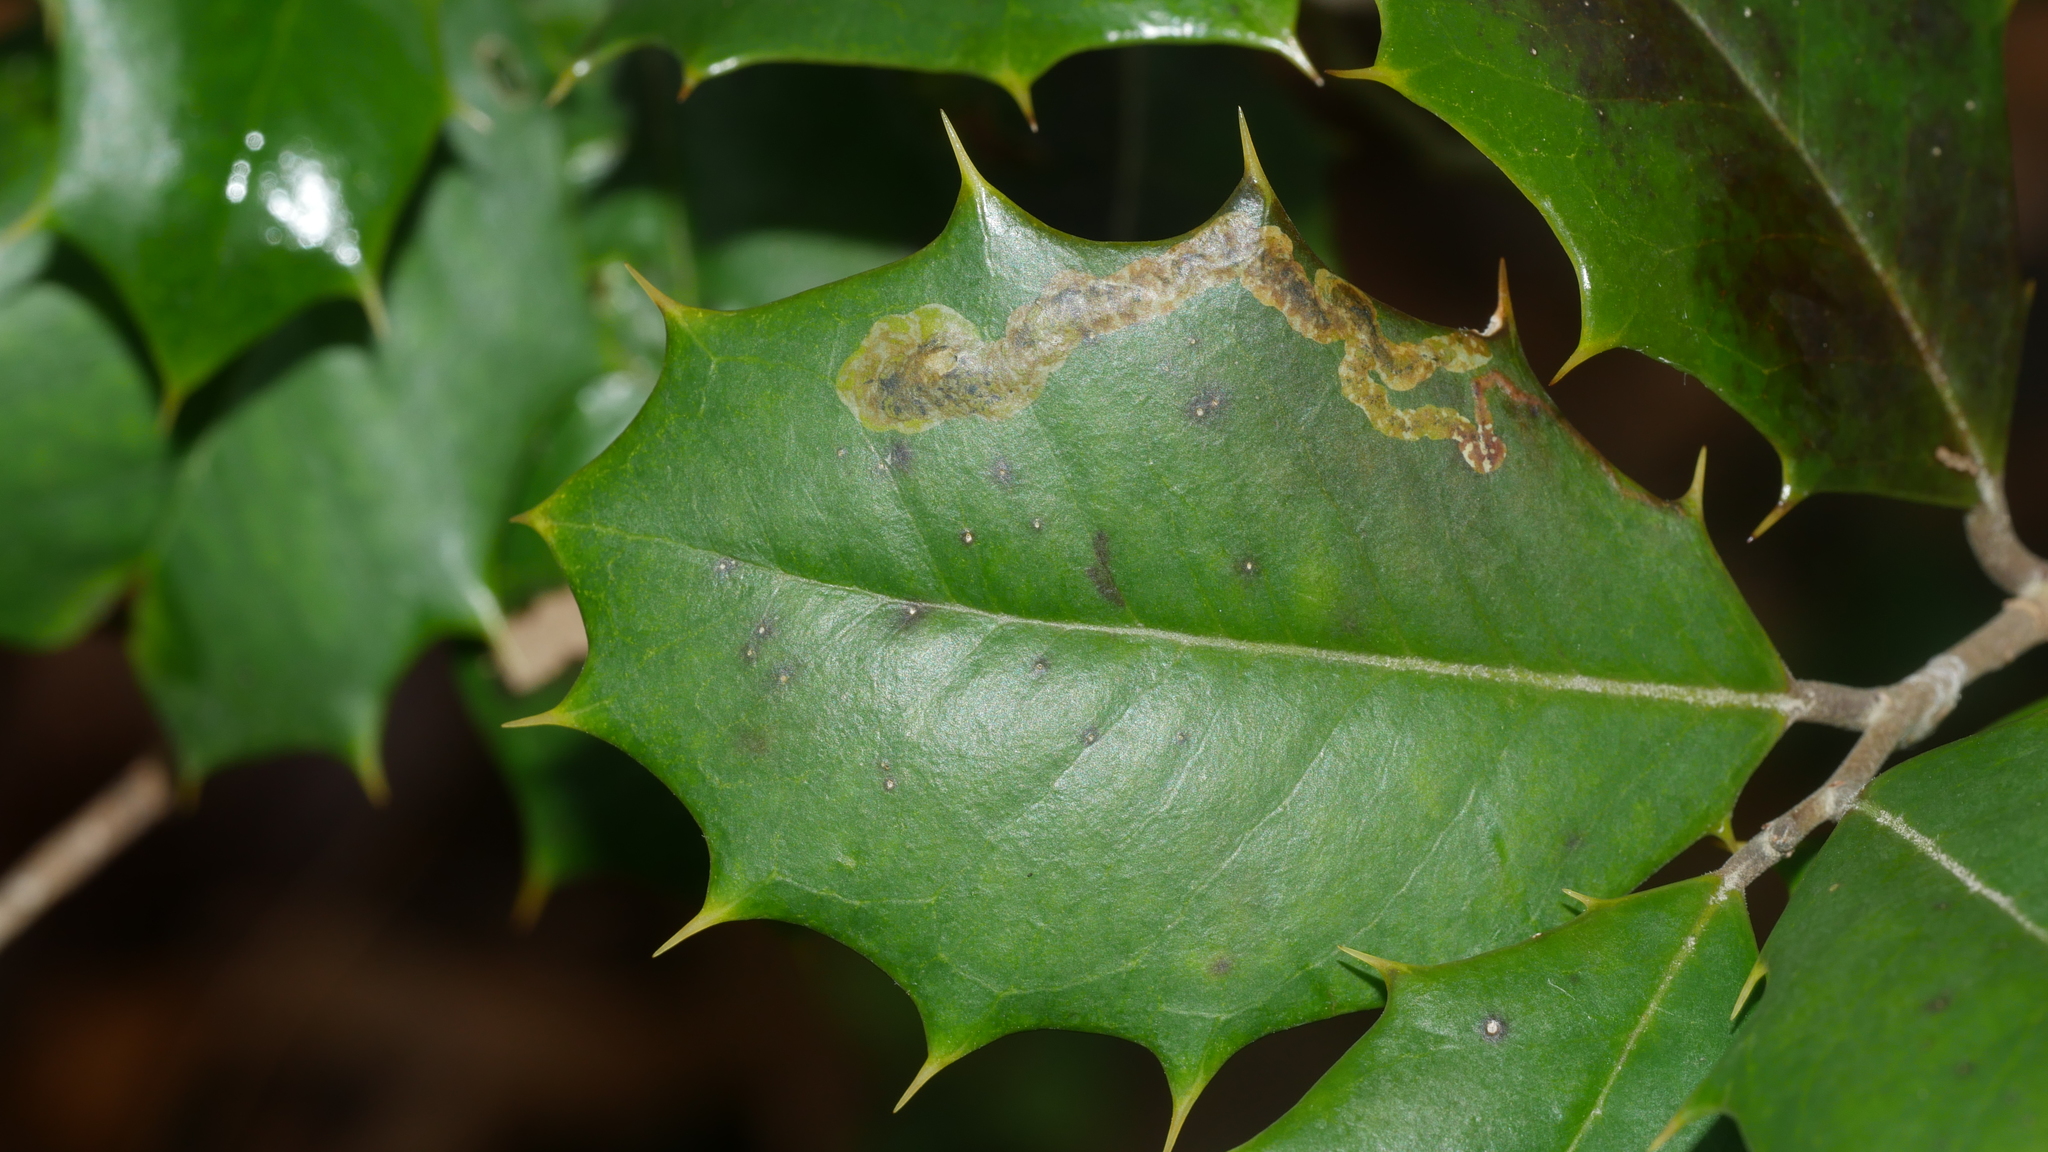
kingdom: Animalia
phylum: Arthropoda
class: Insecta
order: Diptera
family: Agromyzidae
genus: Phytomyza
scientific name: Phytomyza ilicicola
